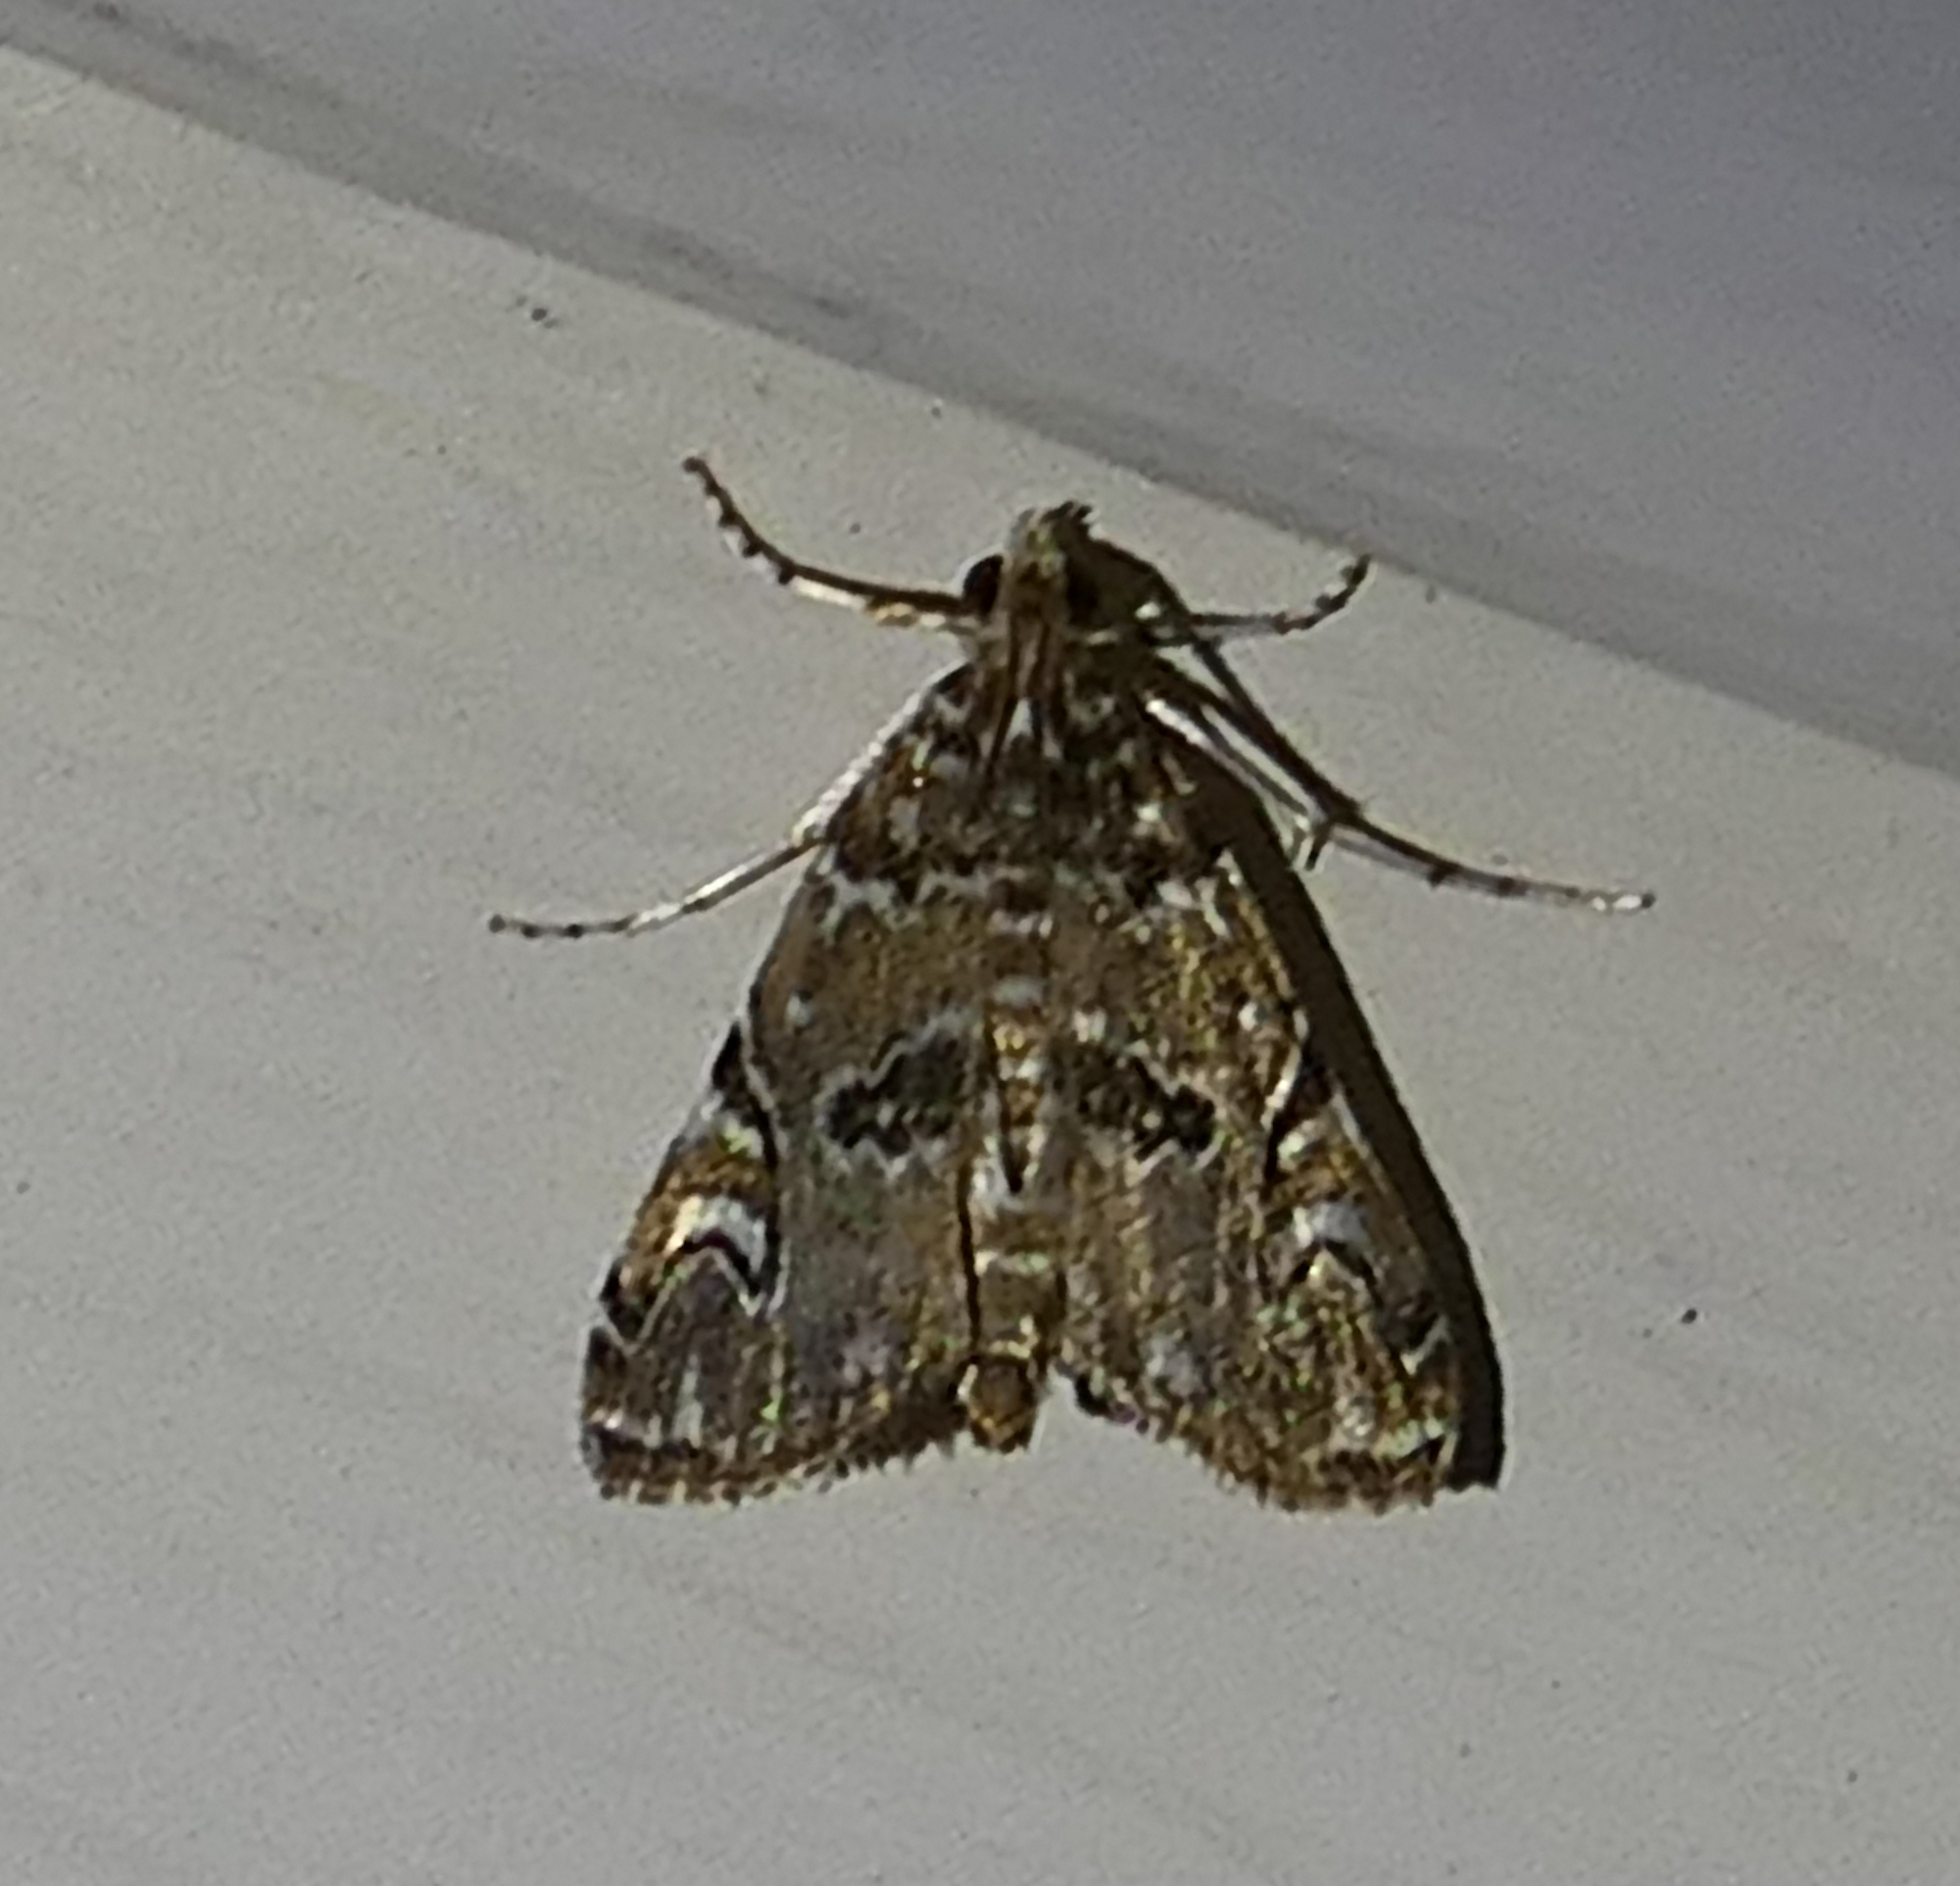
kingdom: Animalia
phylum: Arthropoda
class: Insecta
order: Lepidoptera
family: Crambidae
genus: Elophila
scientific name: Elophila gyralis
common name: Waterlily borer moth
